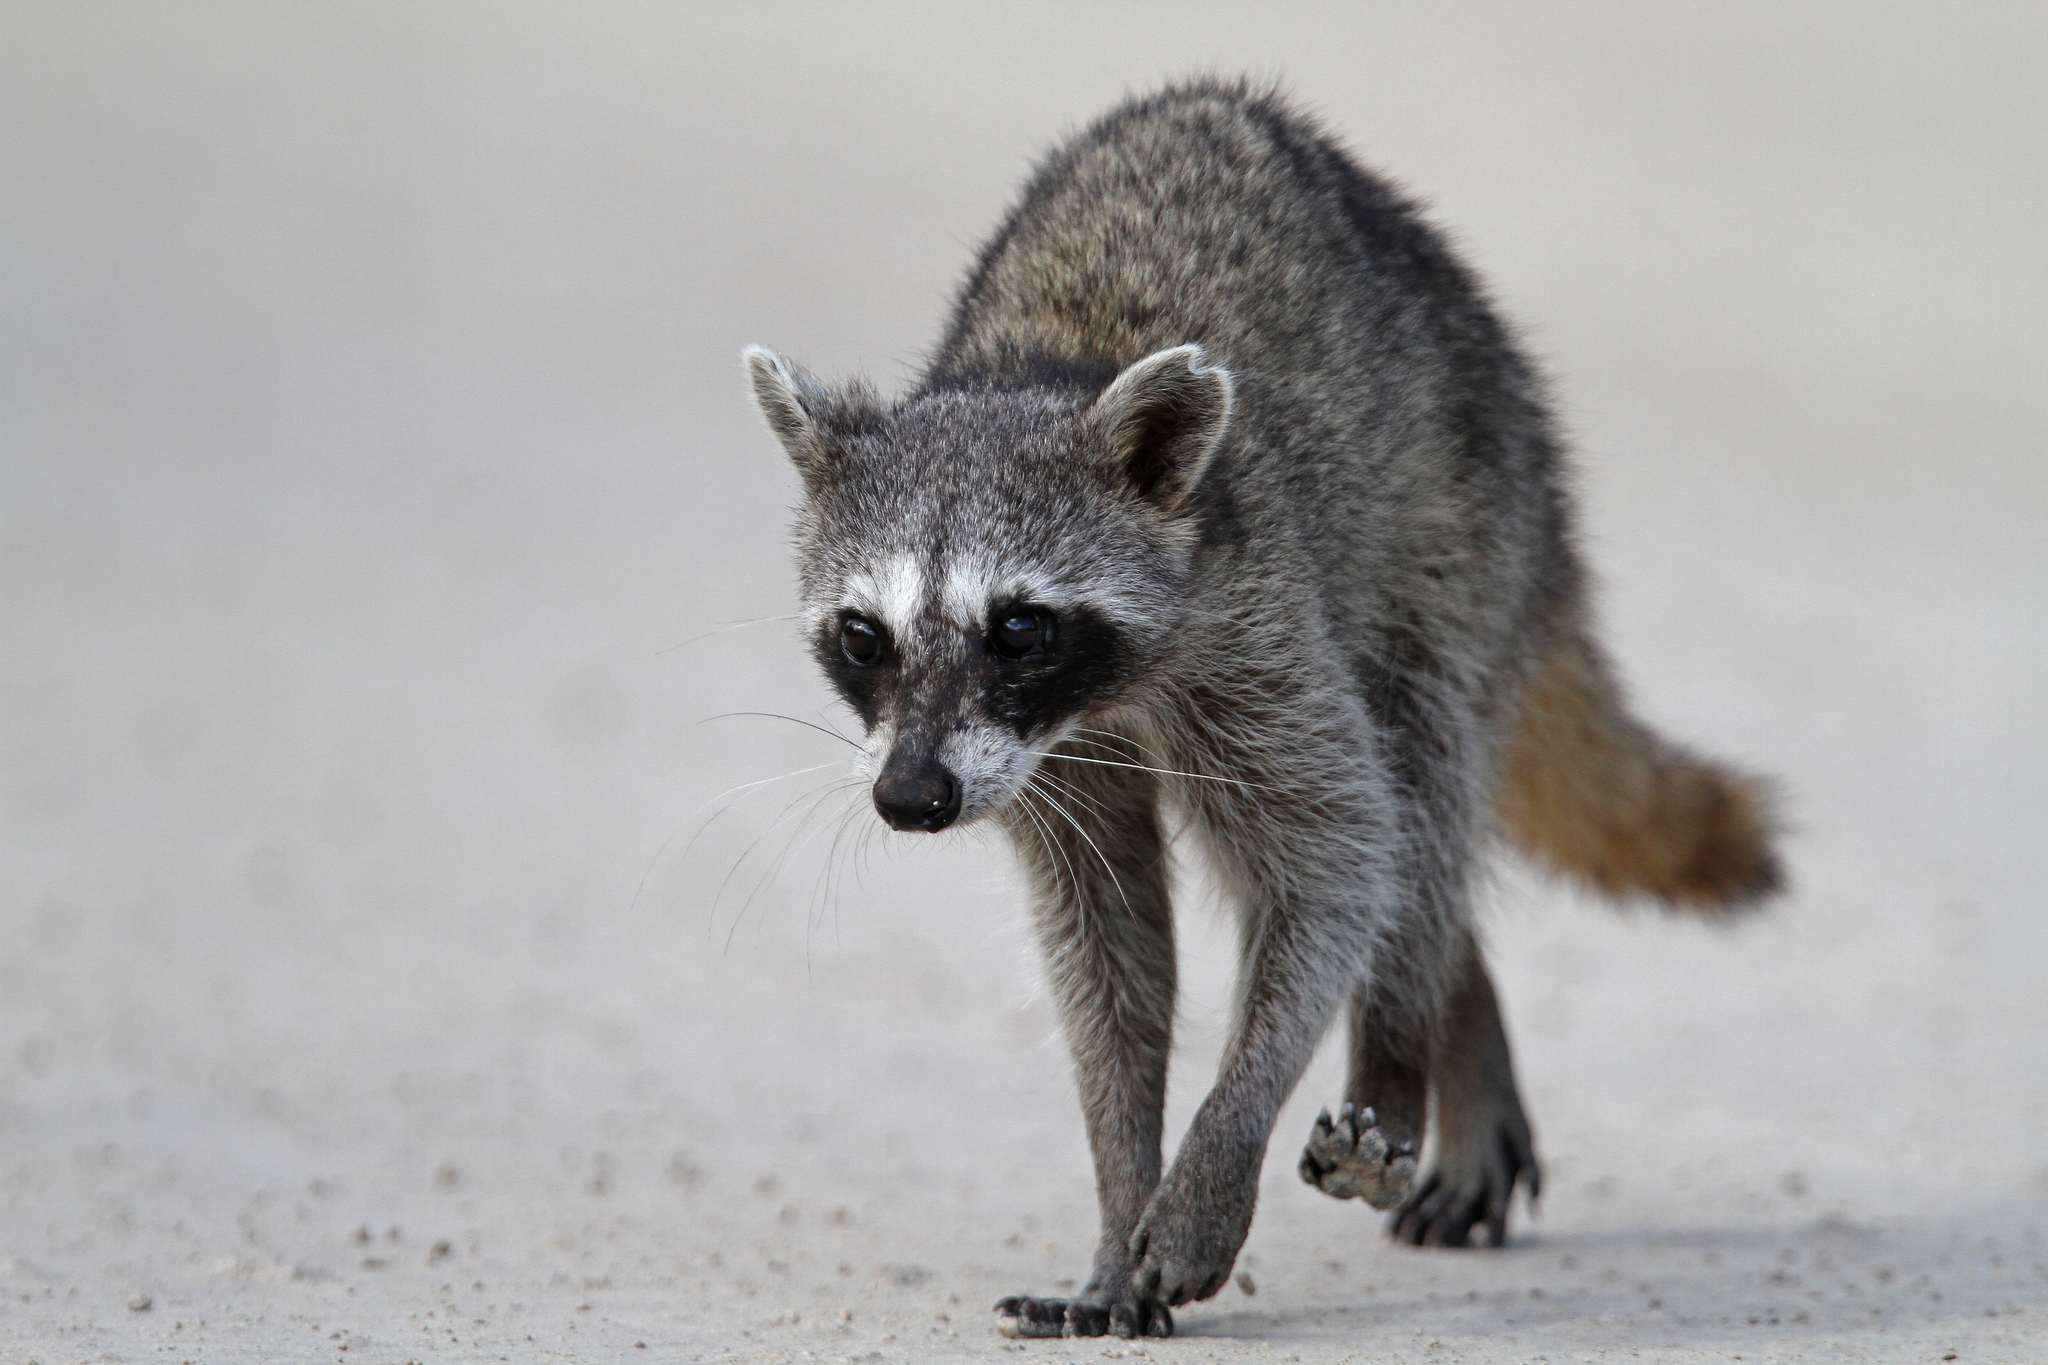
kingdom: Animalia
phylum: Chordata
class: Mammalia
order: Carnivora
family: Procyonidae
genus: Procyon
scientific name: Procyon pygmaeus
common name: Cozumel raccoon
